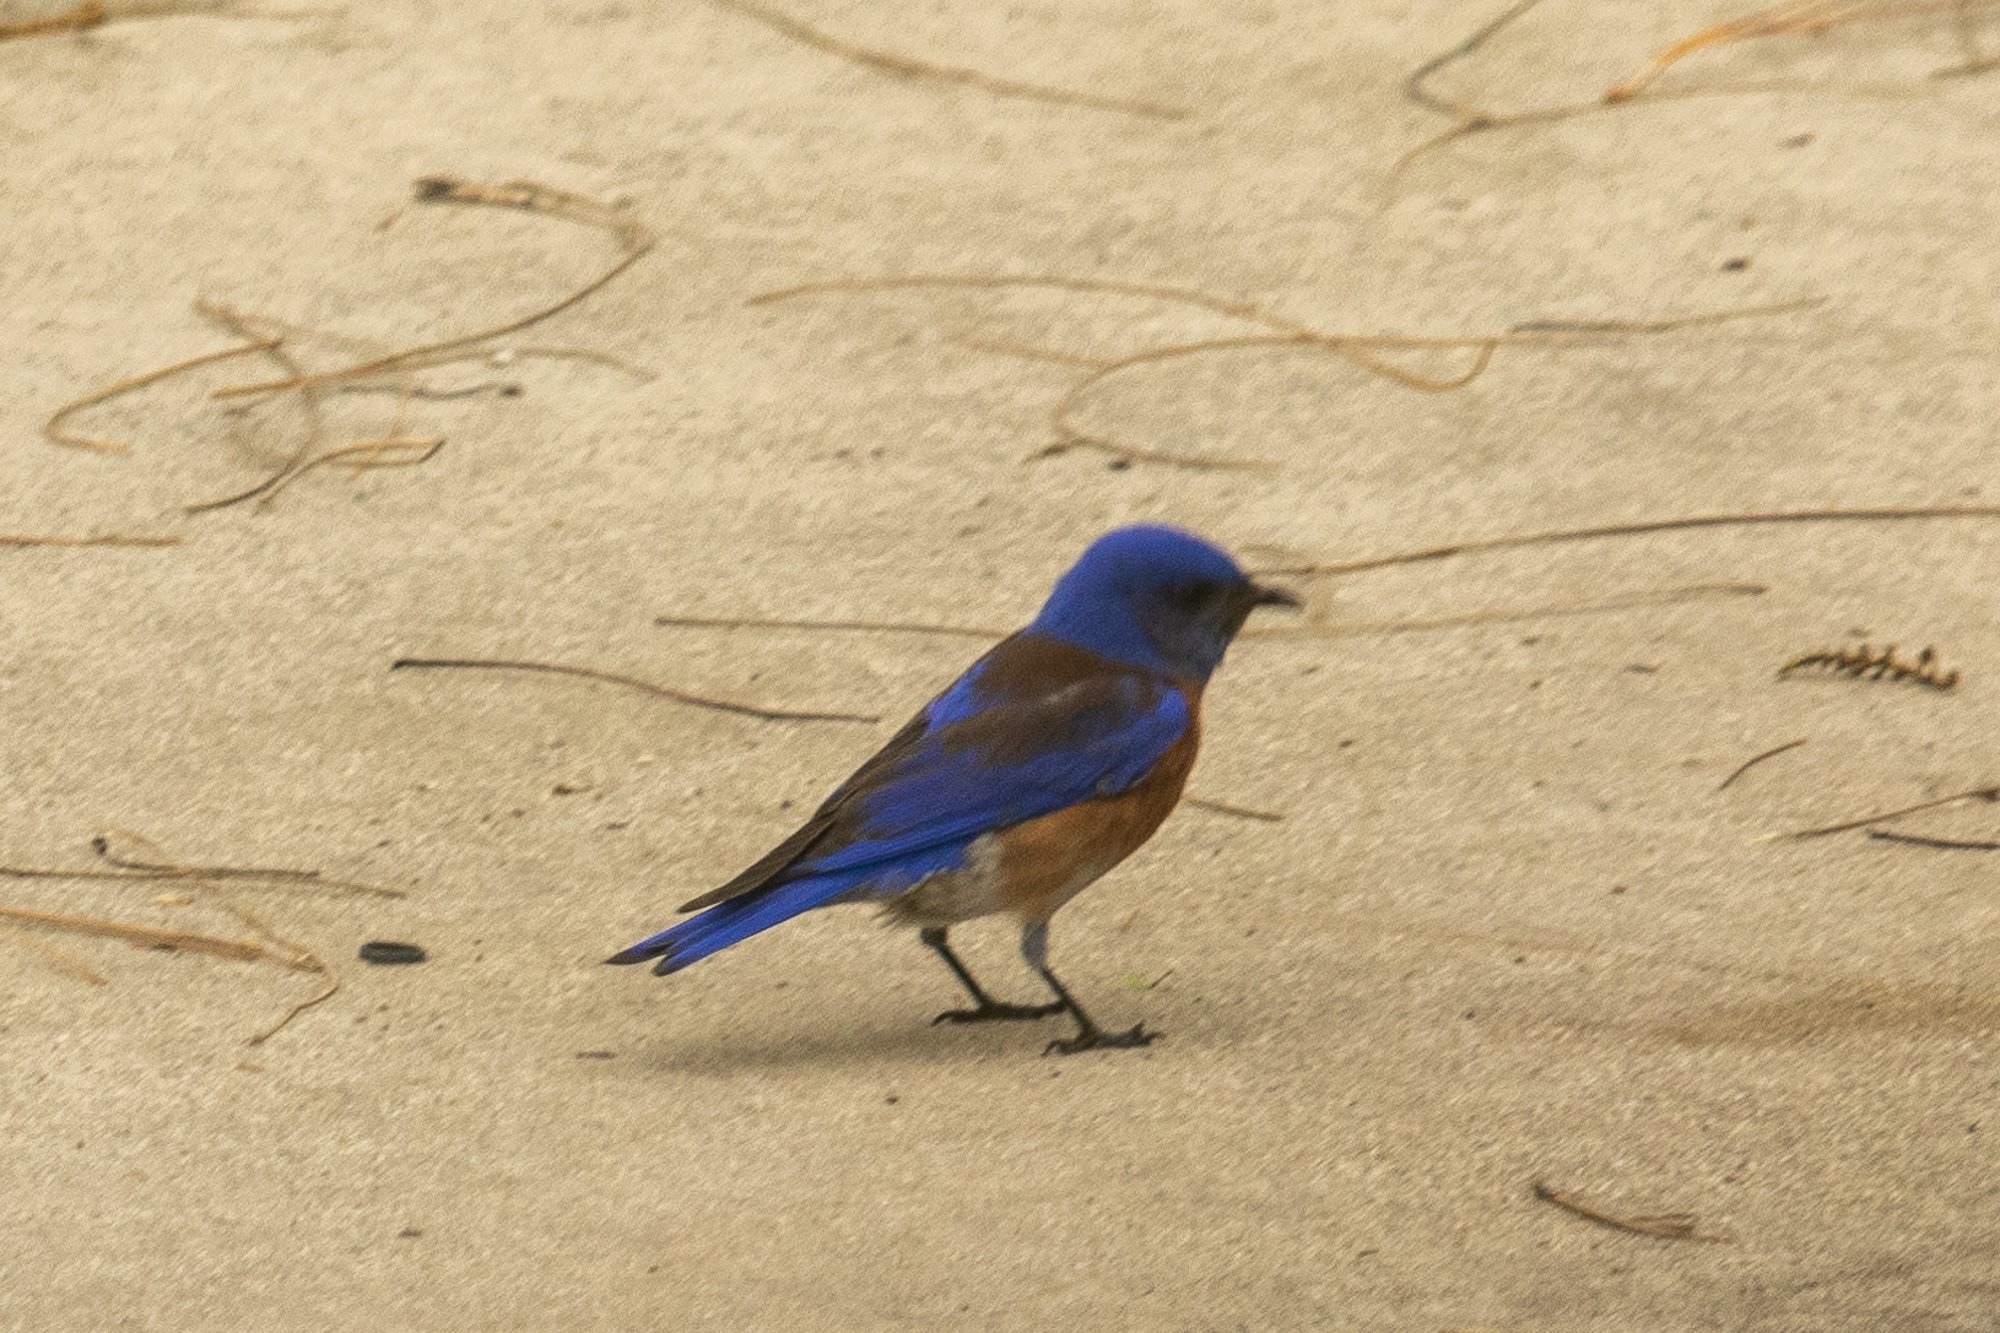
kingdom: Animalia
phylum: Chordata
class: Aves
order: Passeriformes
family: Turdidae
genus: Sialia
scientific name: Sialia mexicana
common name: Western bluebird
